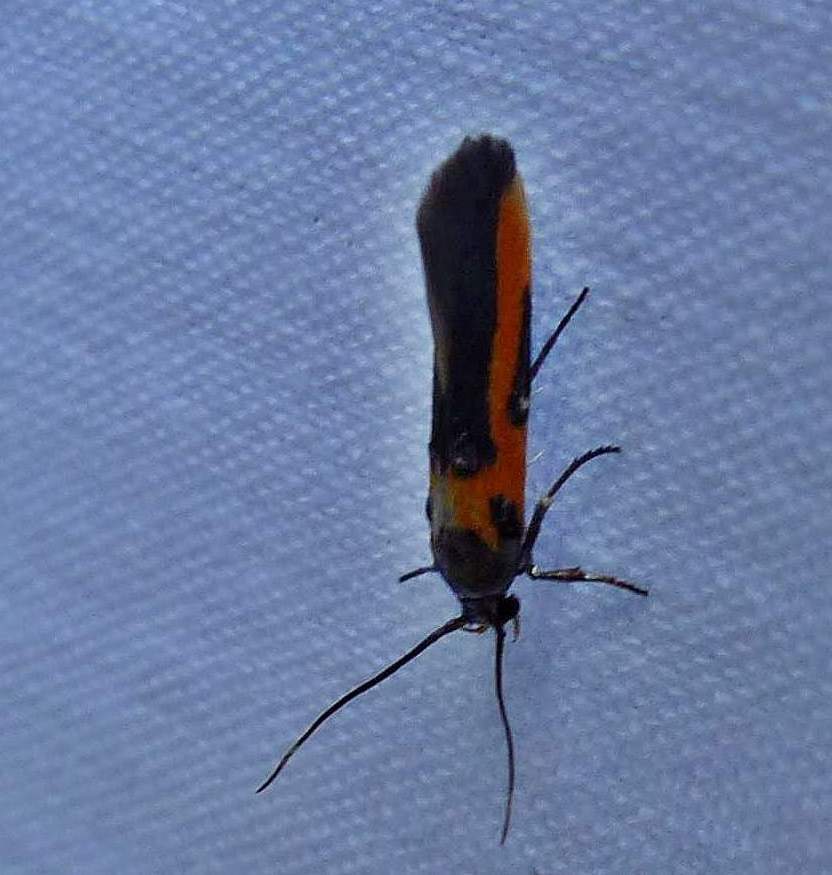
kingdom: Animalia
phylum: Arthropoda
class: Insecta
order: Lepidoptera
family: Cosmopterigidae
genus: Euclemensia
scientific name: Euclemensia bassettella
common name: Kermes scale moth
